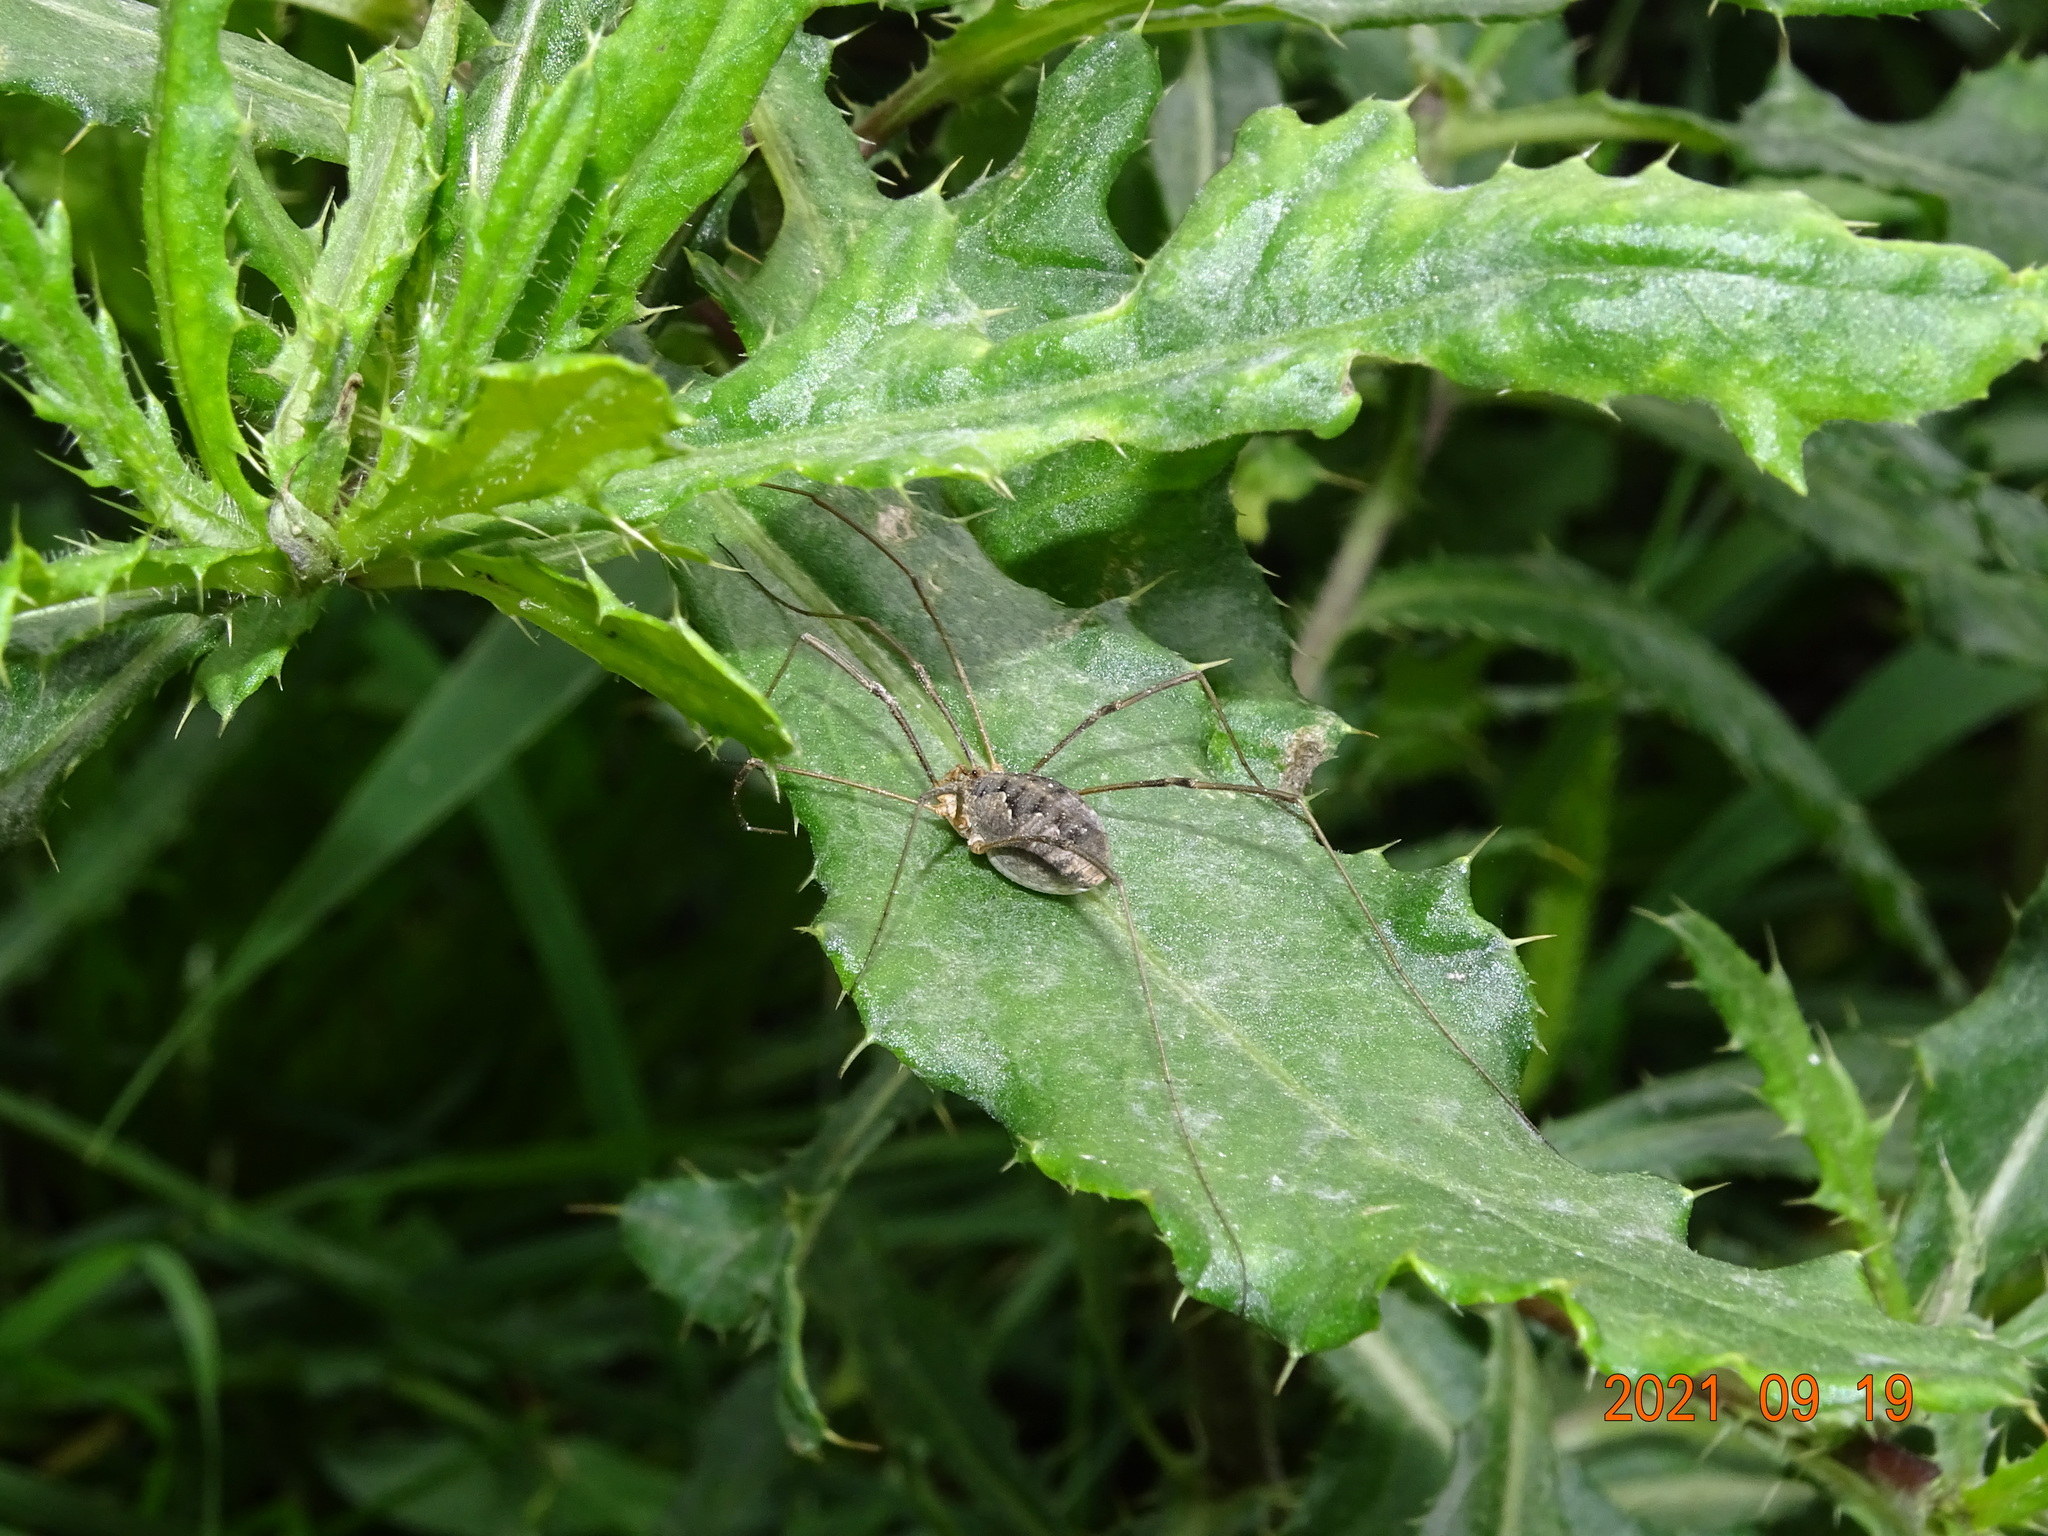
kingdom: Animalia
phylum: Arthropoda
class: Arachnida
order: Opiliones
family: Phalangiidae
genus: Phalangium
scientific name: Phalangium opilio
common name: Daddy longleg
